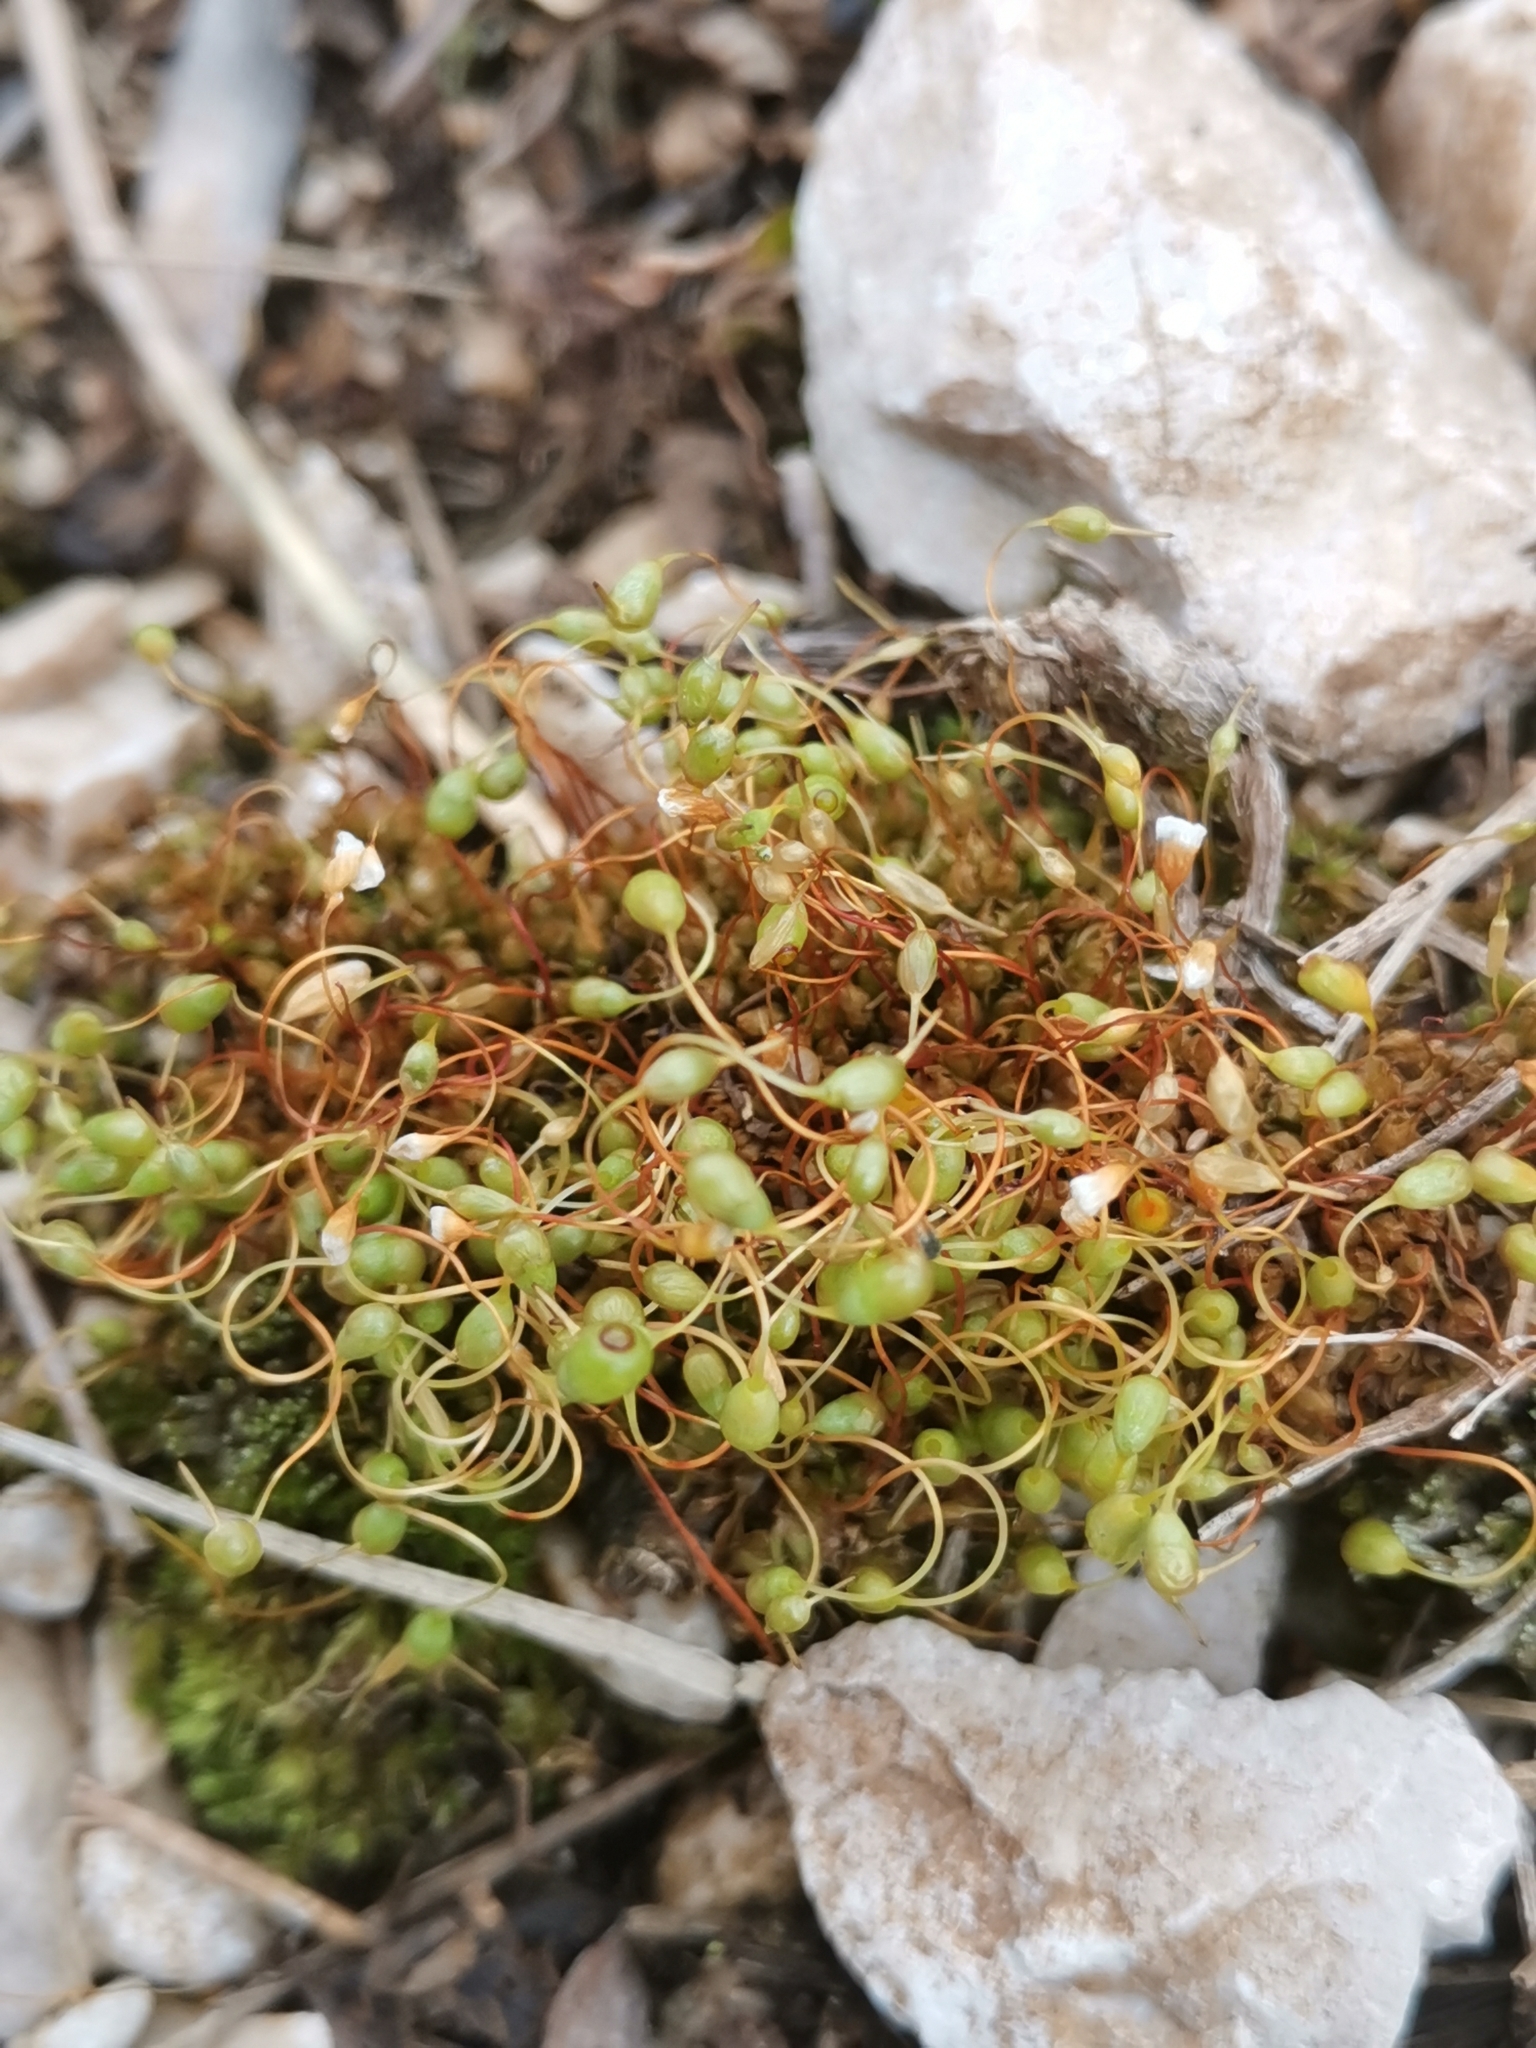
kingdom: Plantae
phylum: Bryophyta
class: Bryopsida
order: Funariales
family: Funariaceae
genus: Funaria
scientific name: Funaria hygrometrica
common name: Common cord moss
